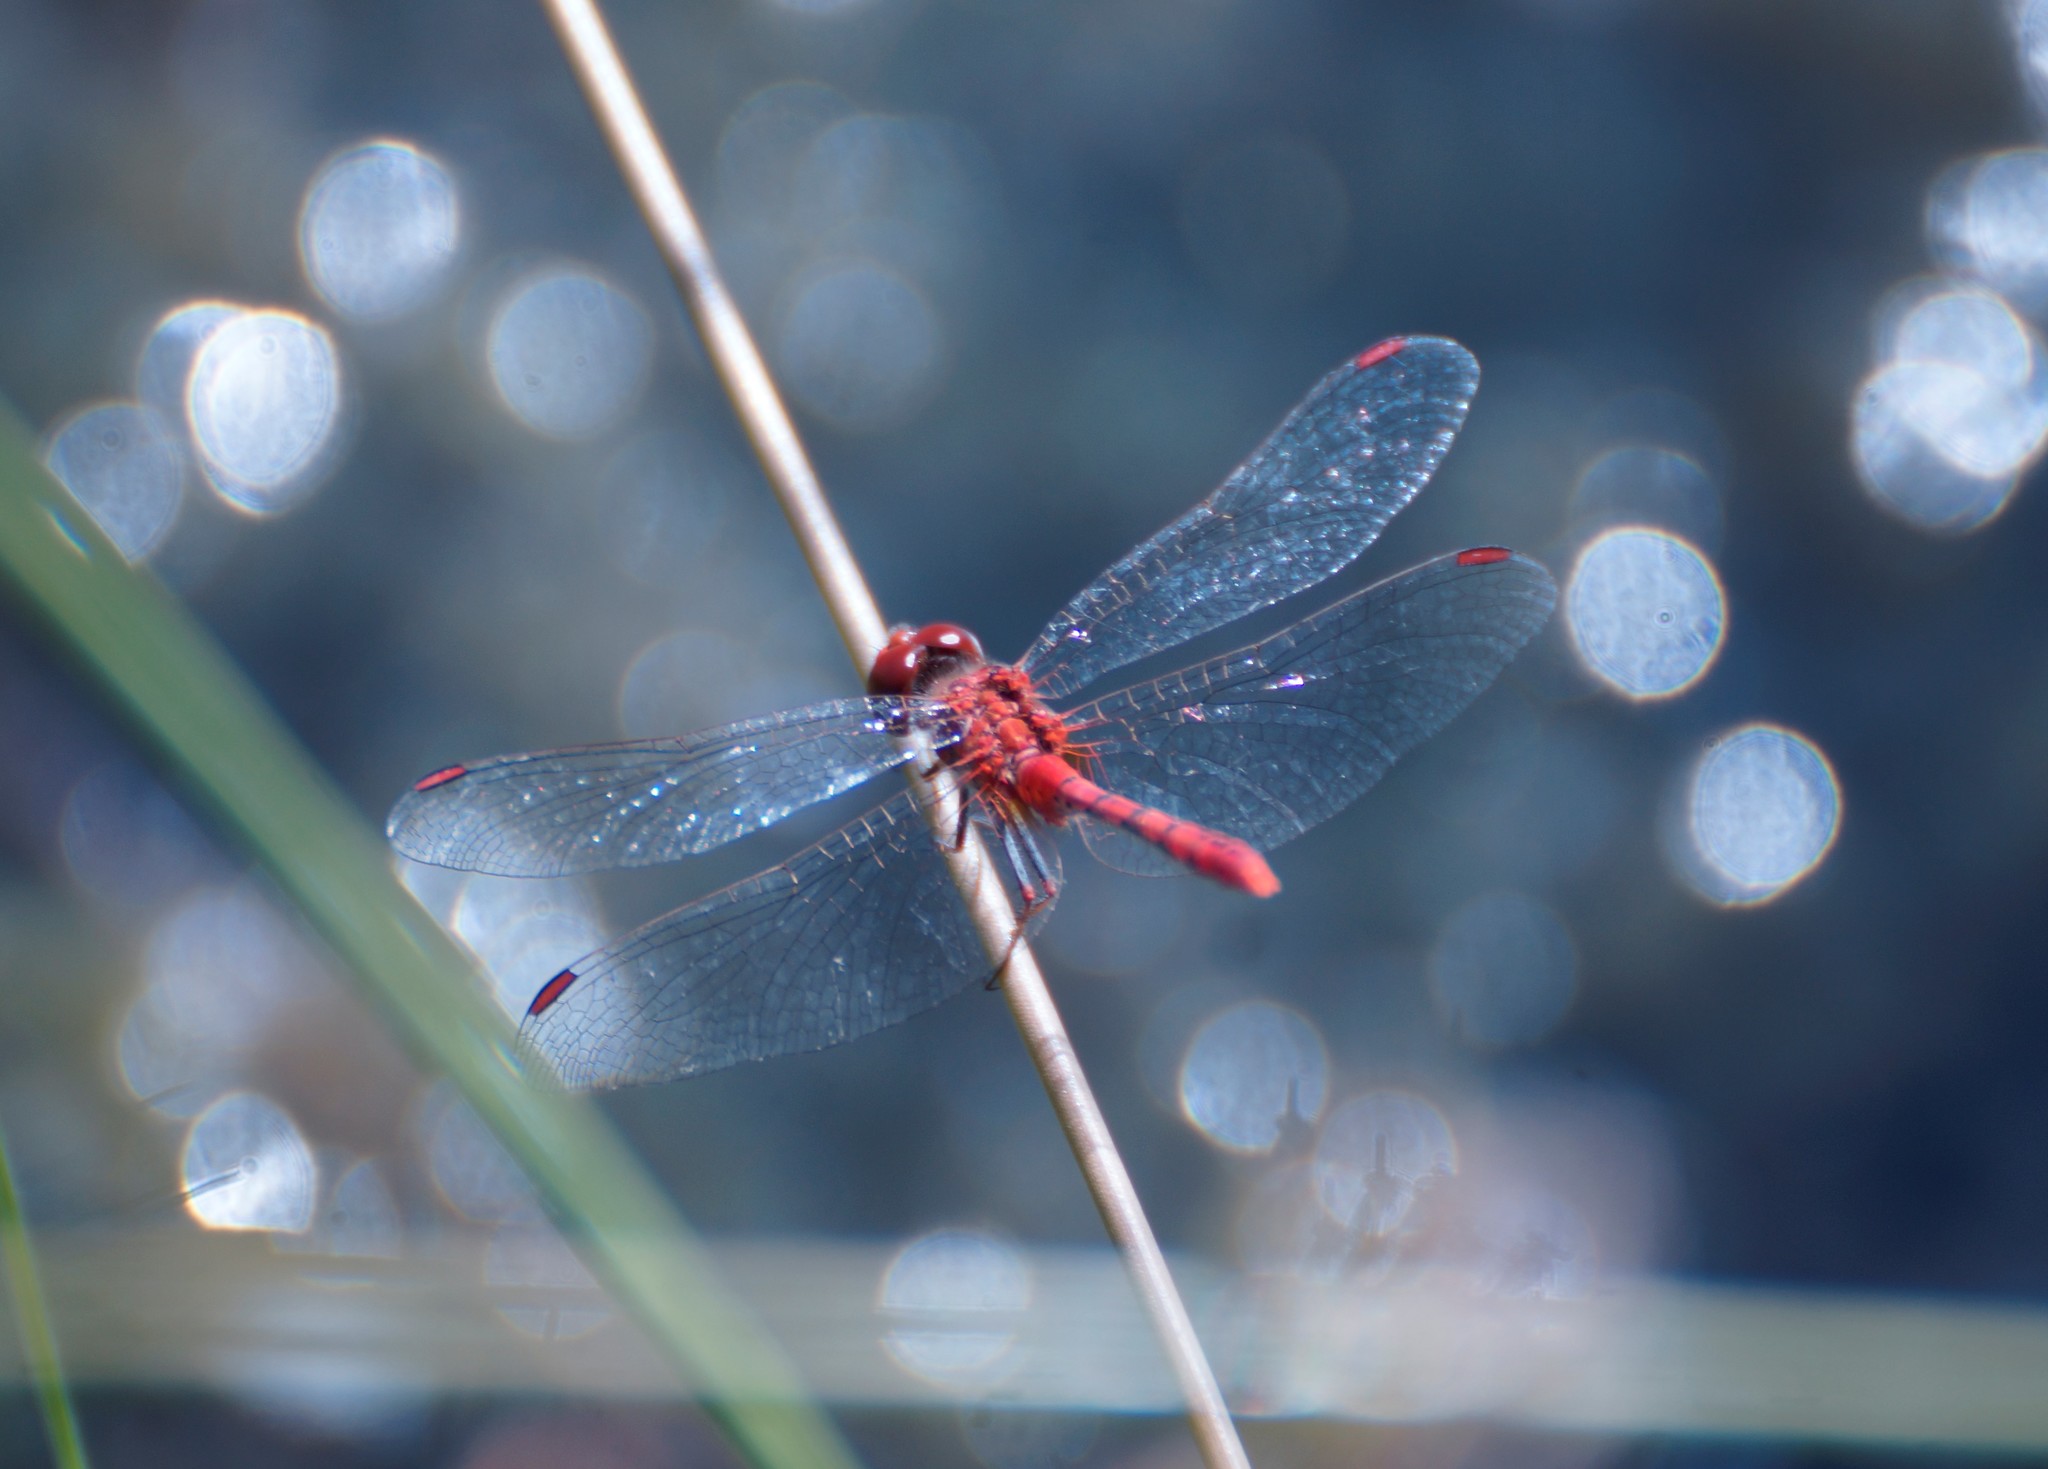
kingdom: Animalia
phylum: Arthropoda
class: Insecta
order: Odonata
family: Libellulidae
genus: Diplacodes
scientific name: Diplacodes bipunctata
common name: Red percher dragonfly
